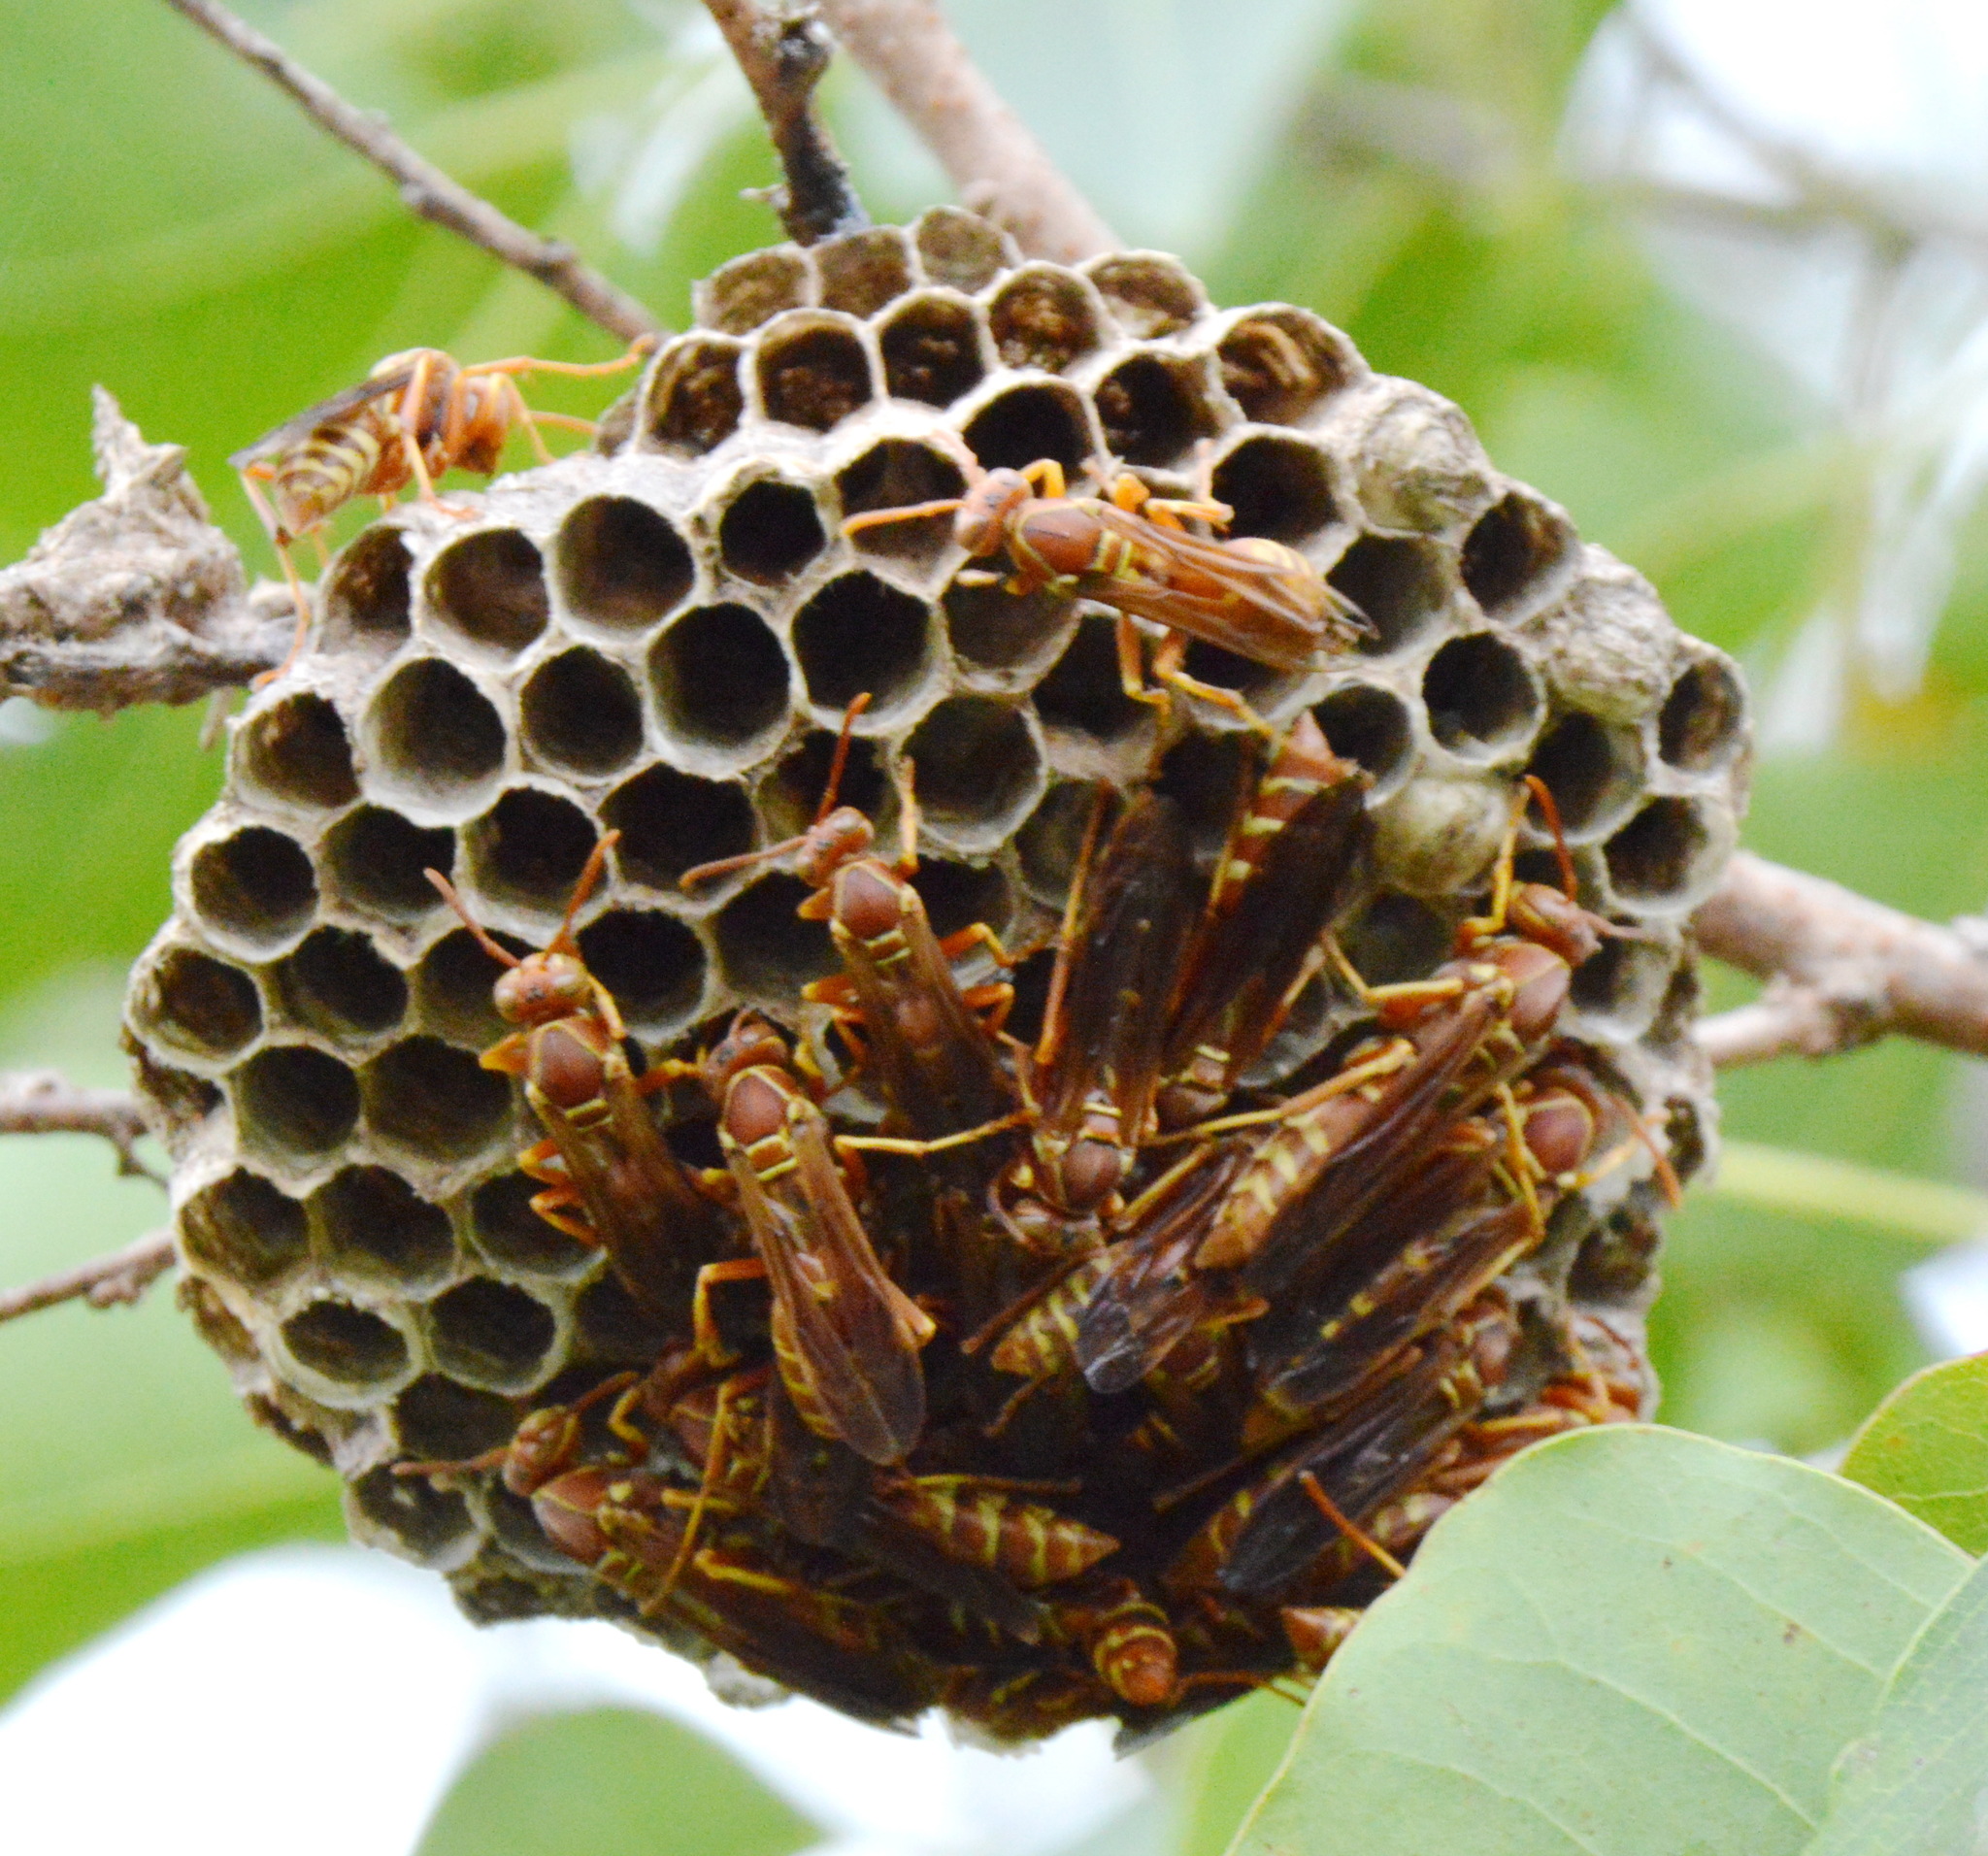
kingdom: Animalia
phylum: Arthropoda
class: Insecta
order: Hymenoptera
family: Eumenidae
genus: Polistes
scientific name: Polistes bellicosus
